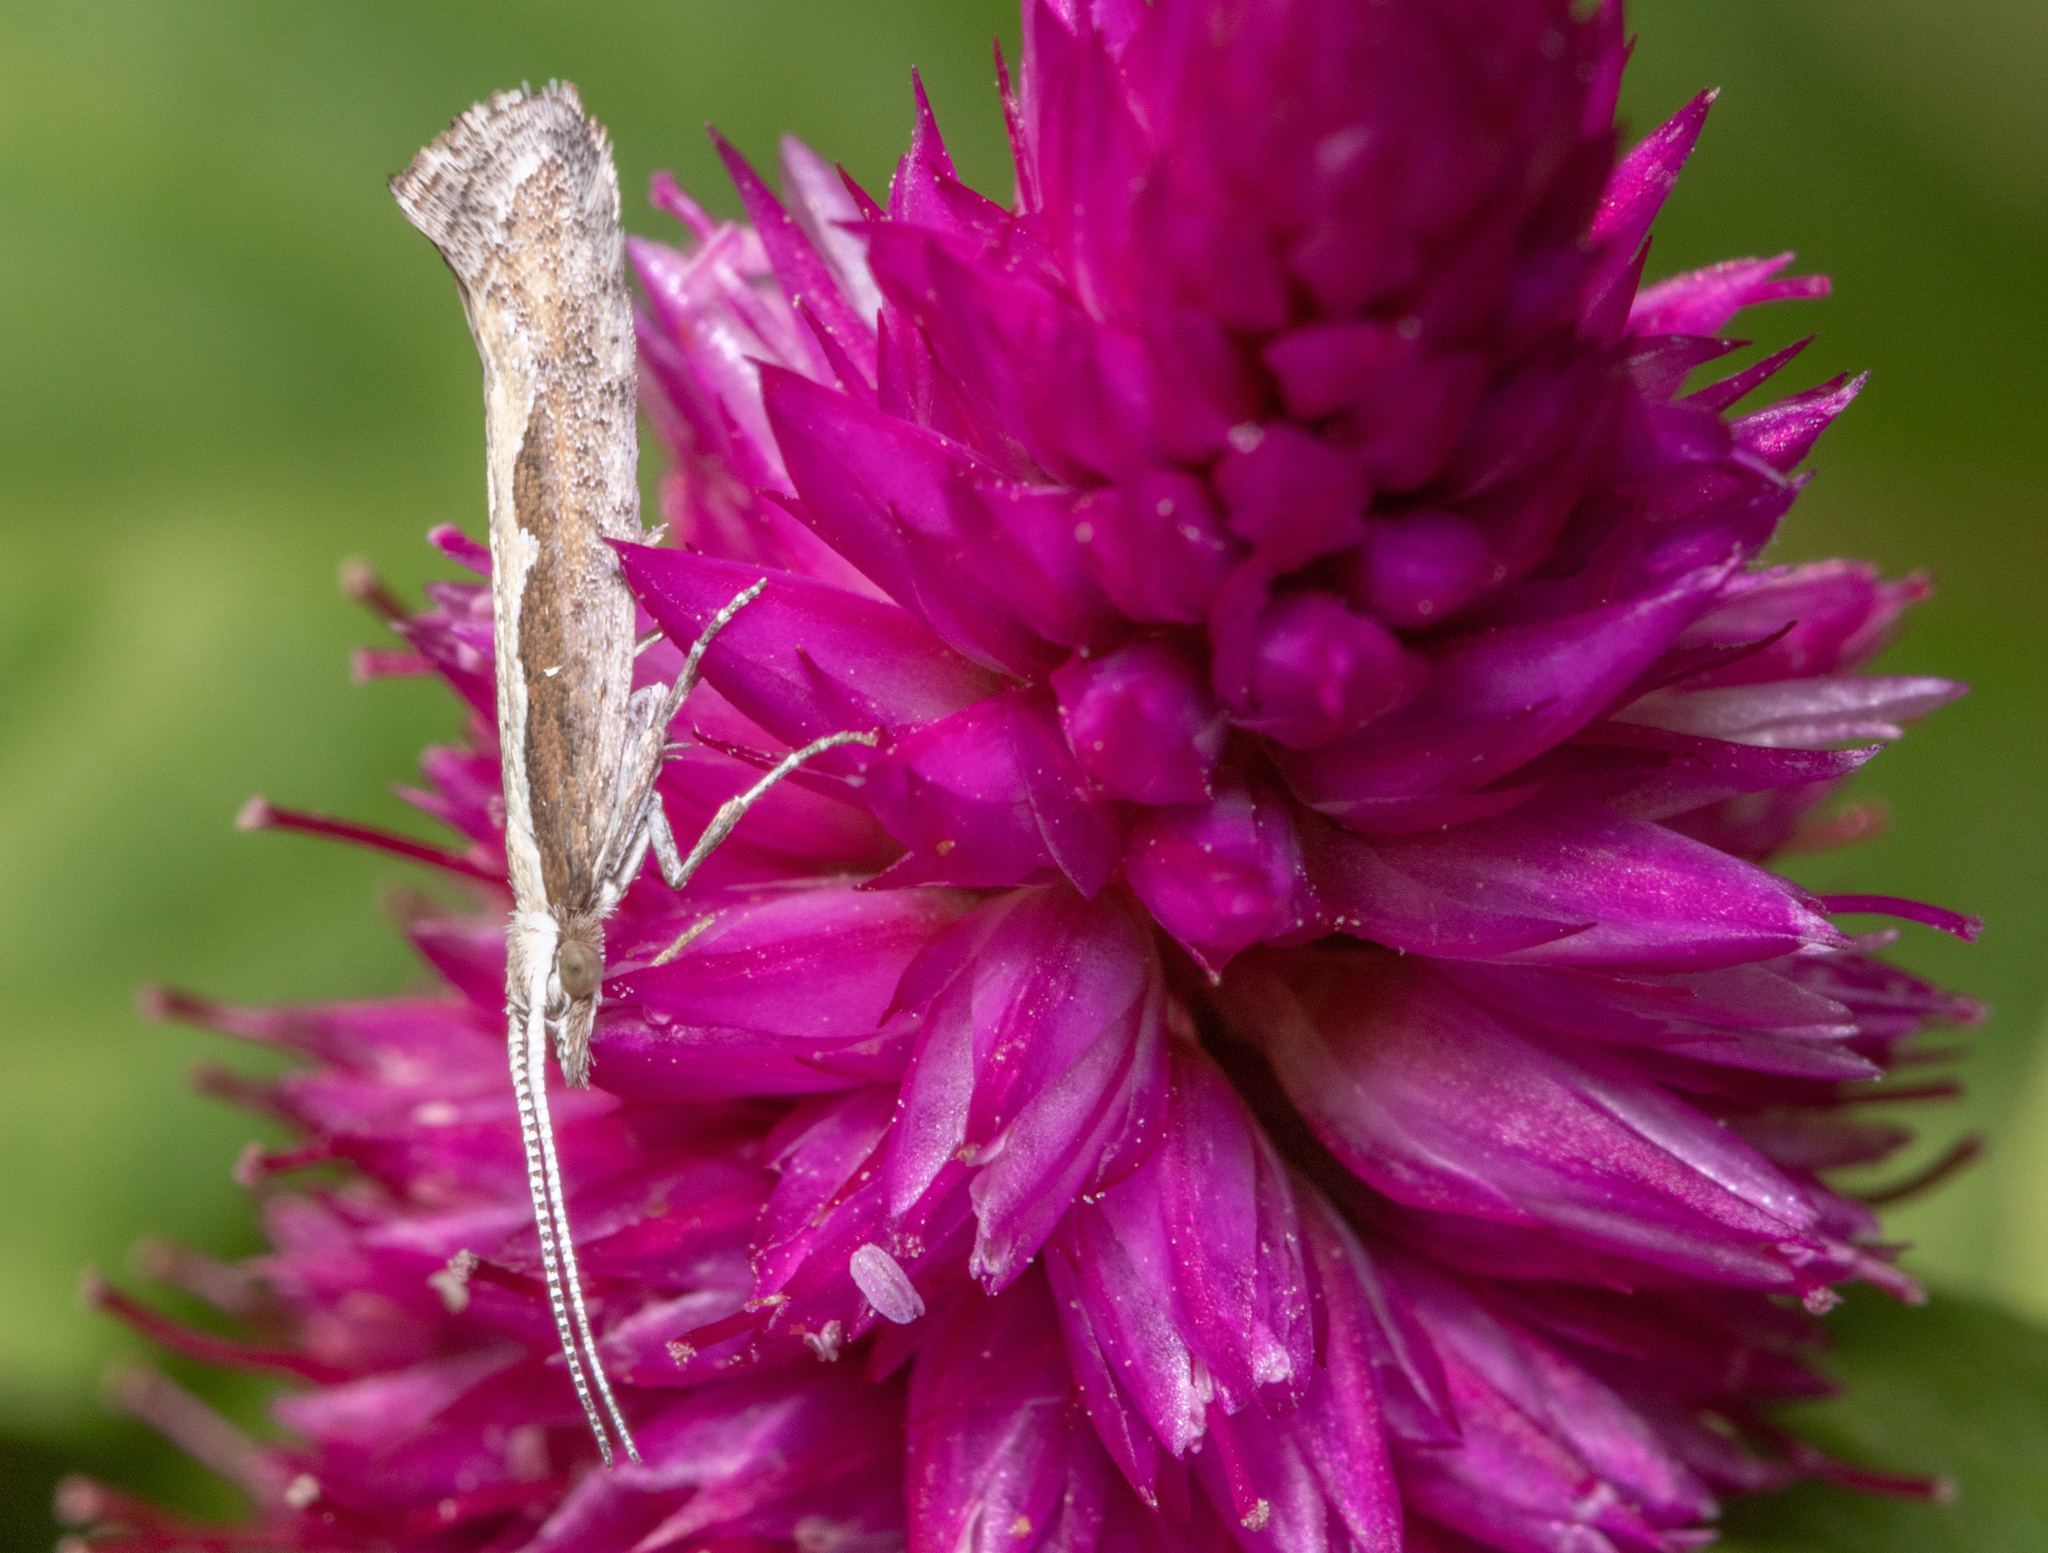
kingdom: Animalia
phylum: Arthropoda
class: Insecta
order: Lepidoptera
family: Plutellidae
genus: Plutella
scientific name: Plutella xylostella
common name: Diamond-back moth
